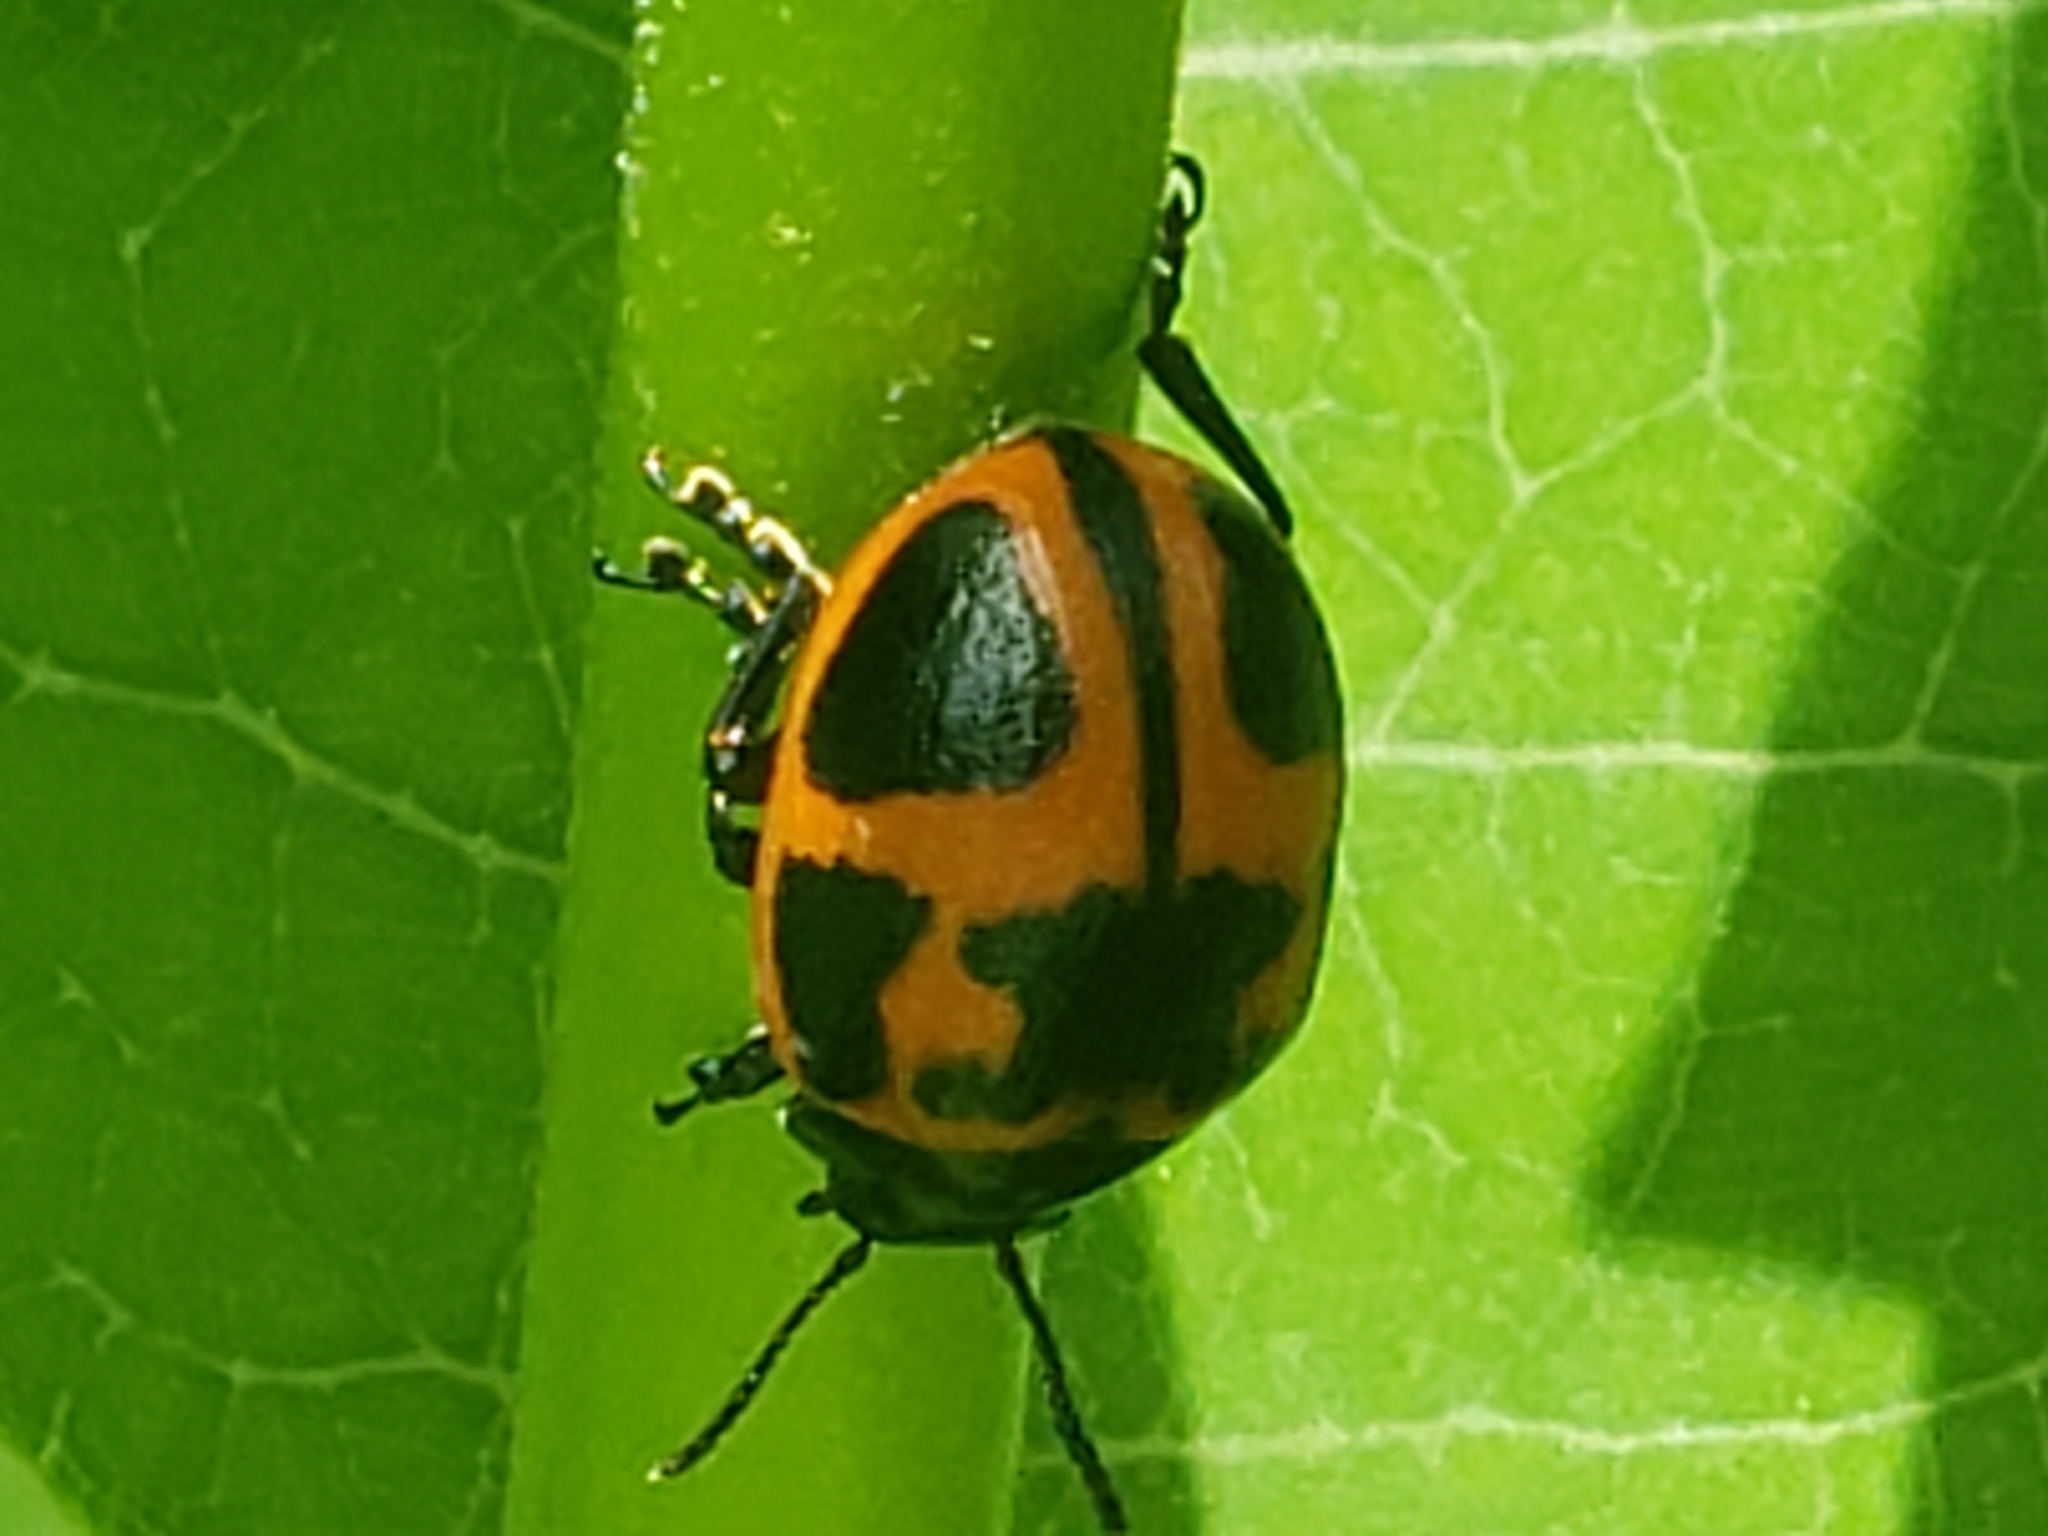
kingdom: Animalia
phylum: Arthropoda
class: Insecta
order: Coleoptera
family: Chrysomelidae
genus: Labidomera
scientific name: Labidomera clivicollis
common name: Swamp milkweed leaf beetle
